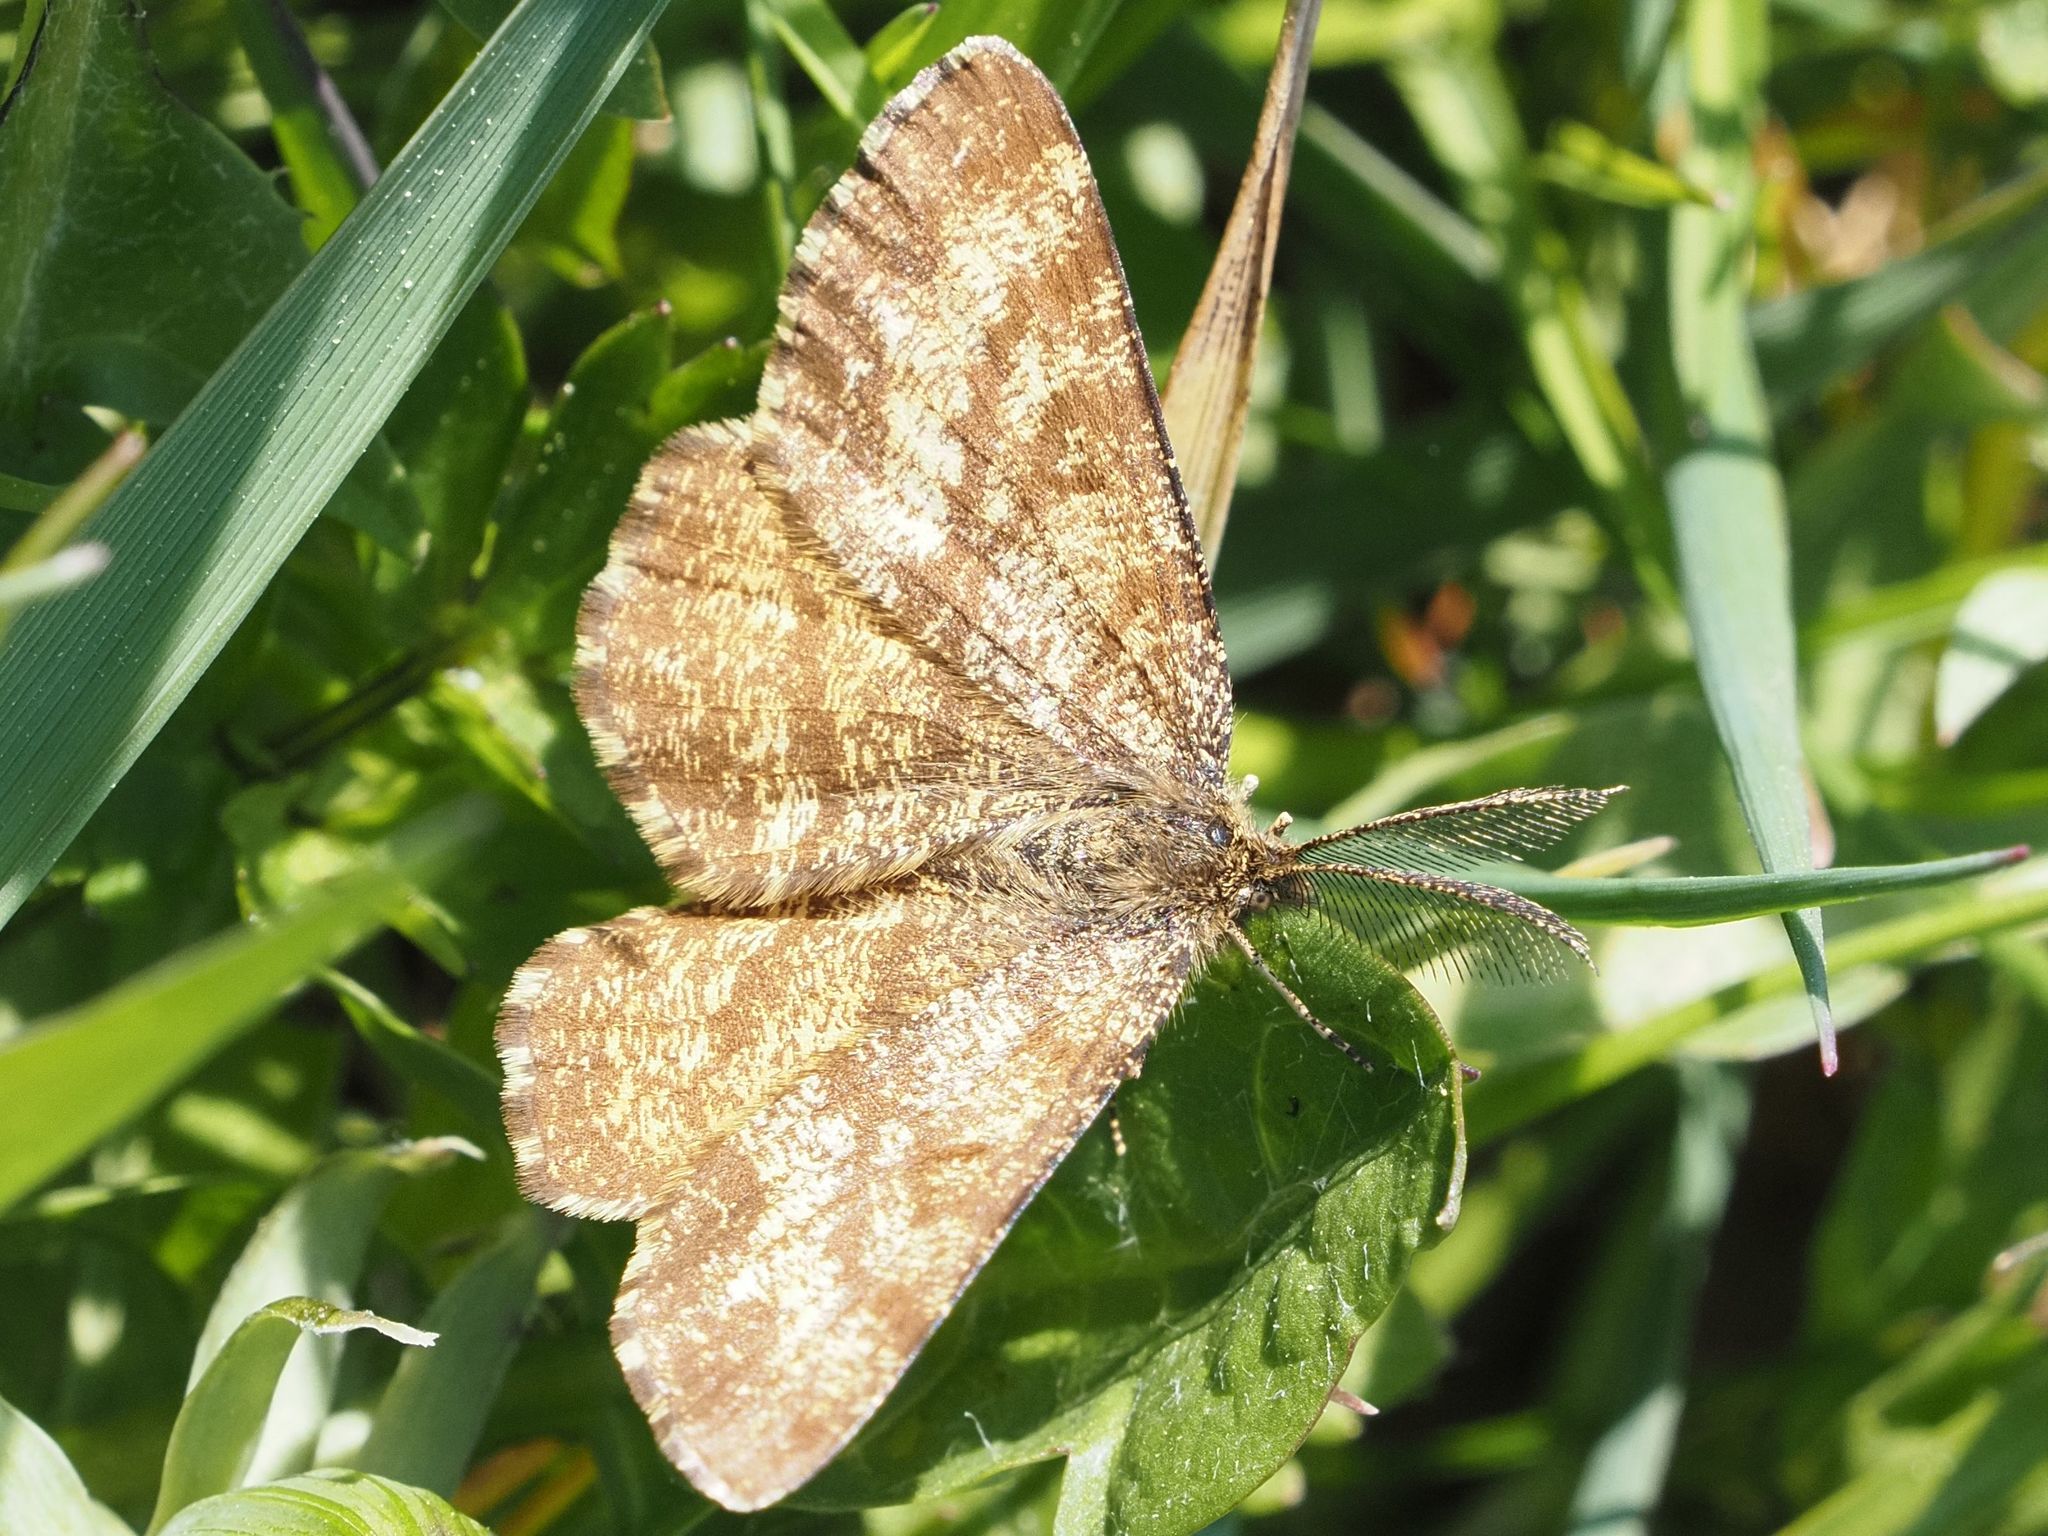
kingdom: Animalia
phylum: Arthropoda
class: Insecta
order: Lepidoptera
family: Geometridae
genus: Ematurga
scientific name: Ematurga atomaria
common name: Common heath
